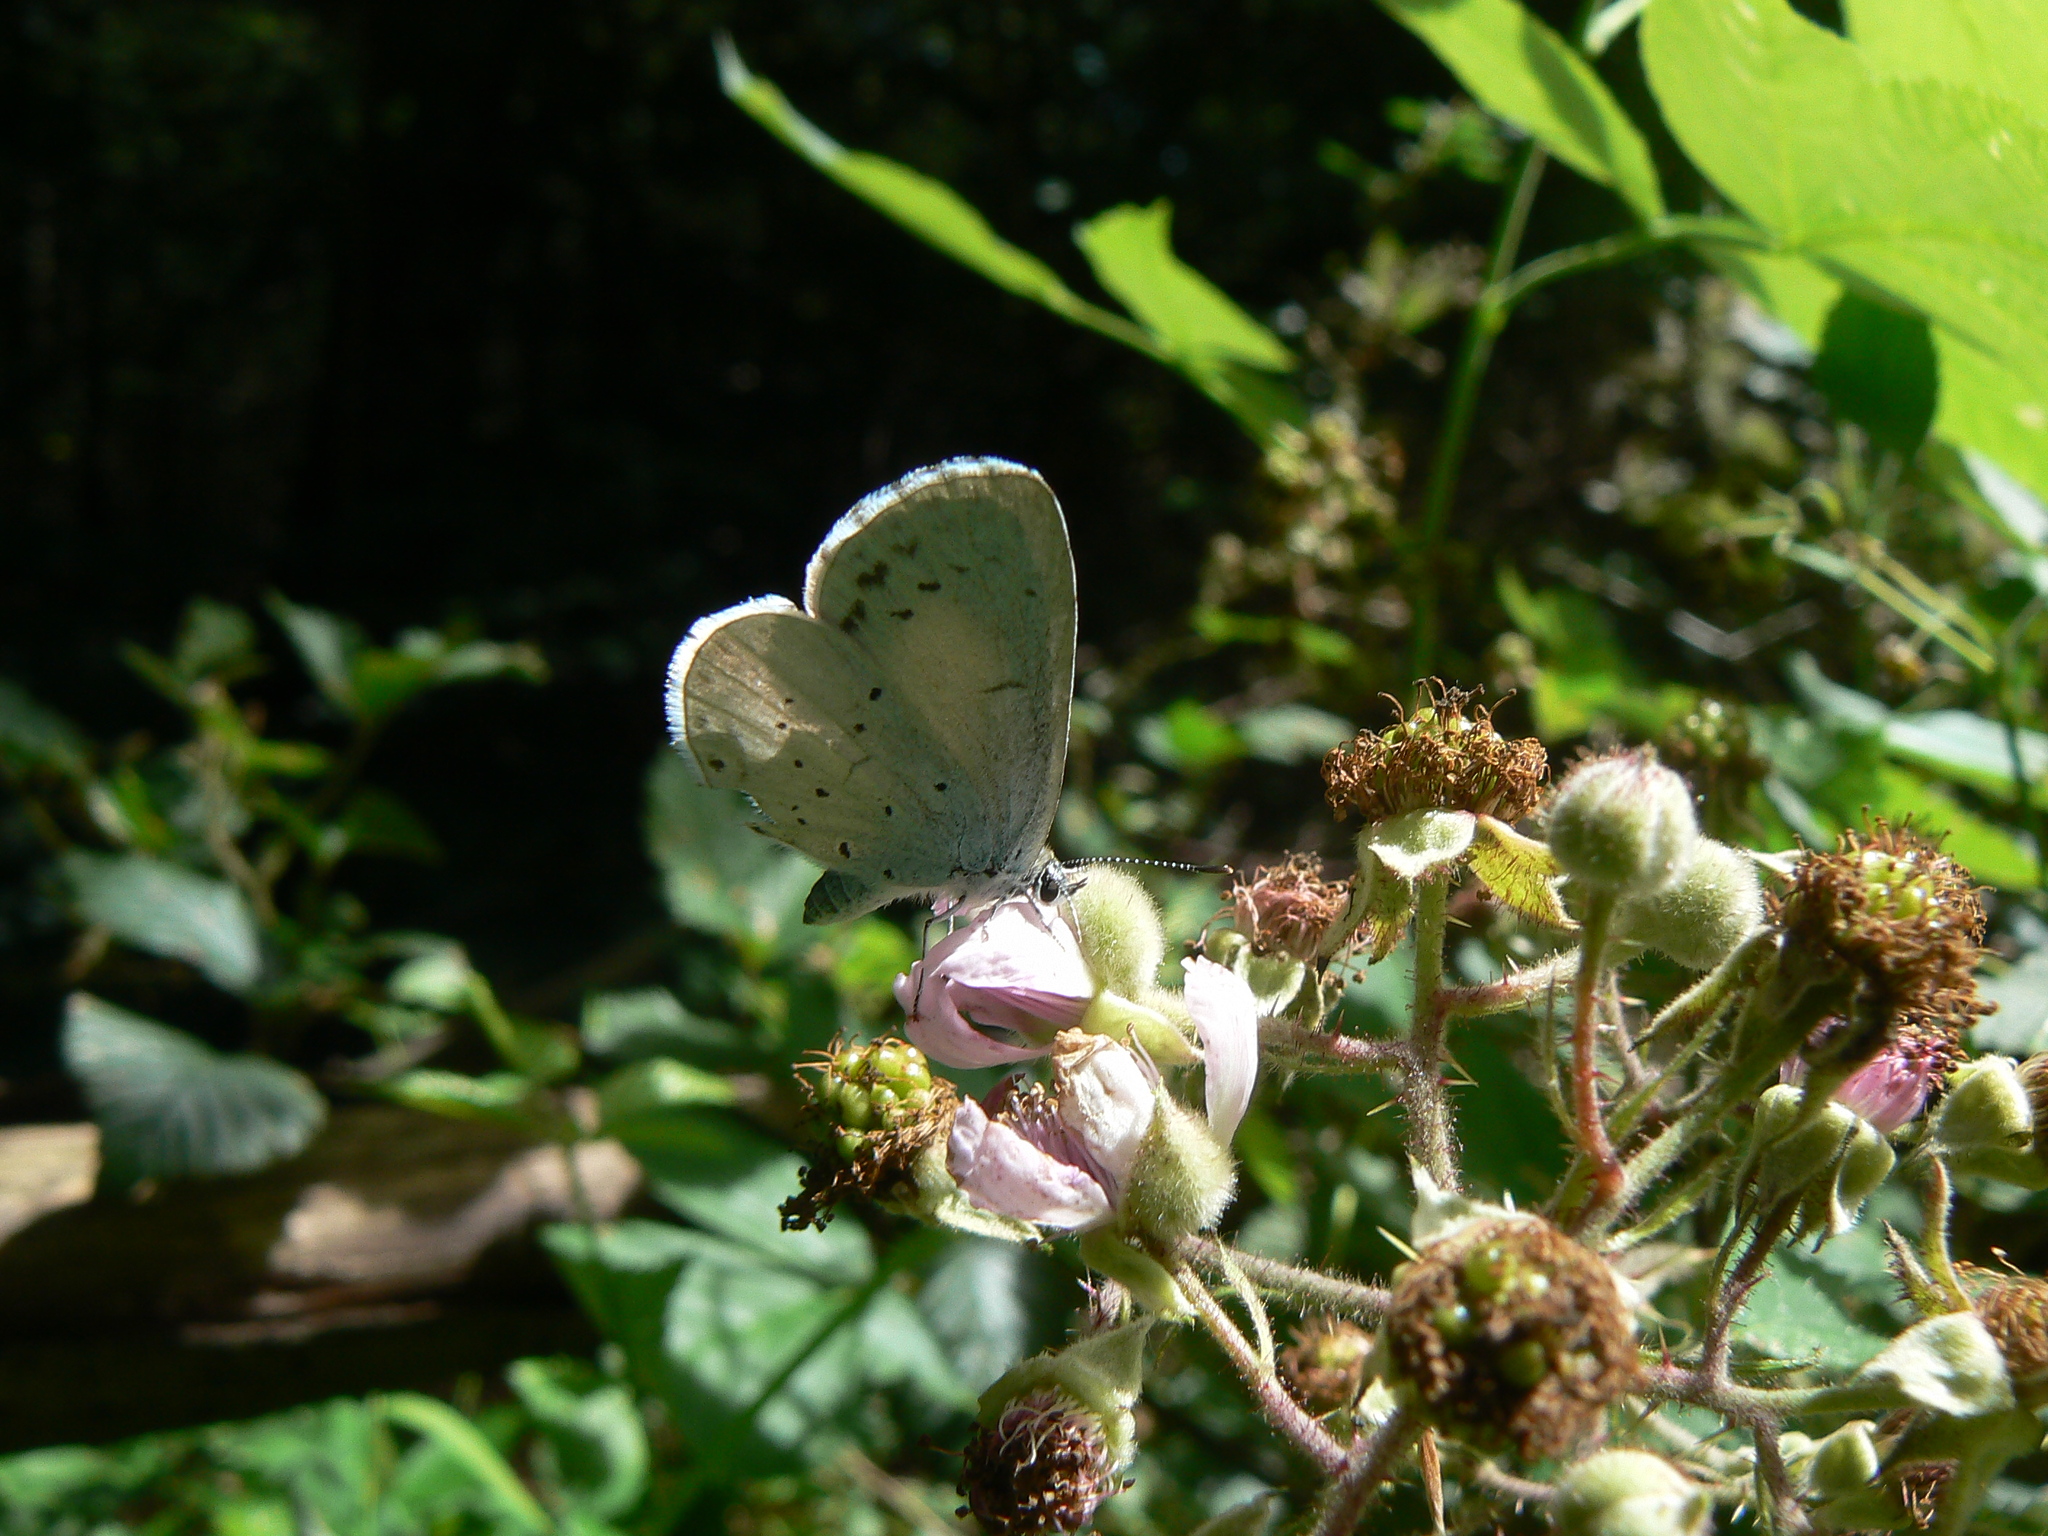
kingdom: Animalia
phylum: Arthropoda
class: Insecta
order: Lepidoptera
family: Lycaenidae
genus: Celastrina
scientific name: Celastrina argiolus
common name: Holly blue
